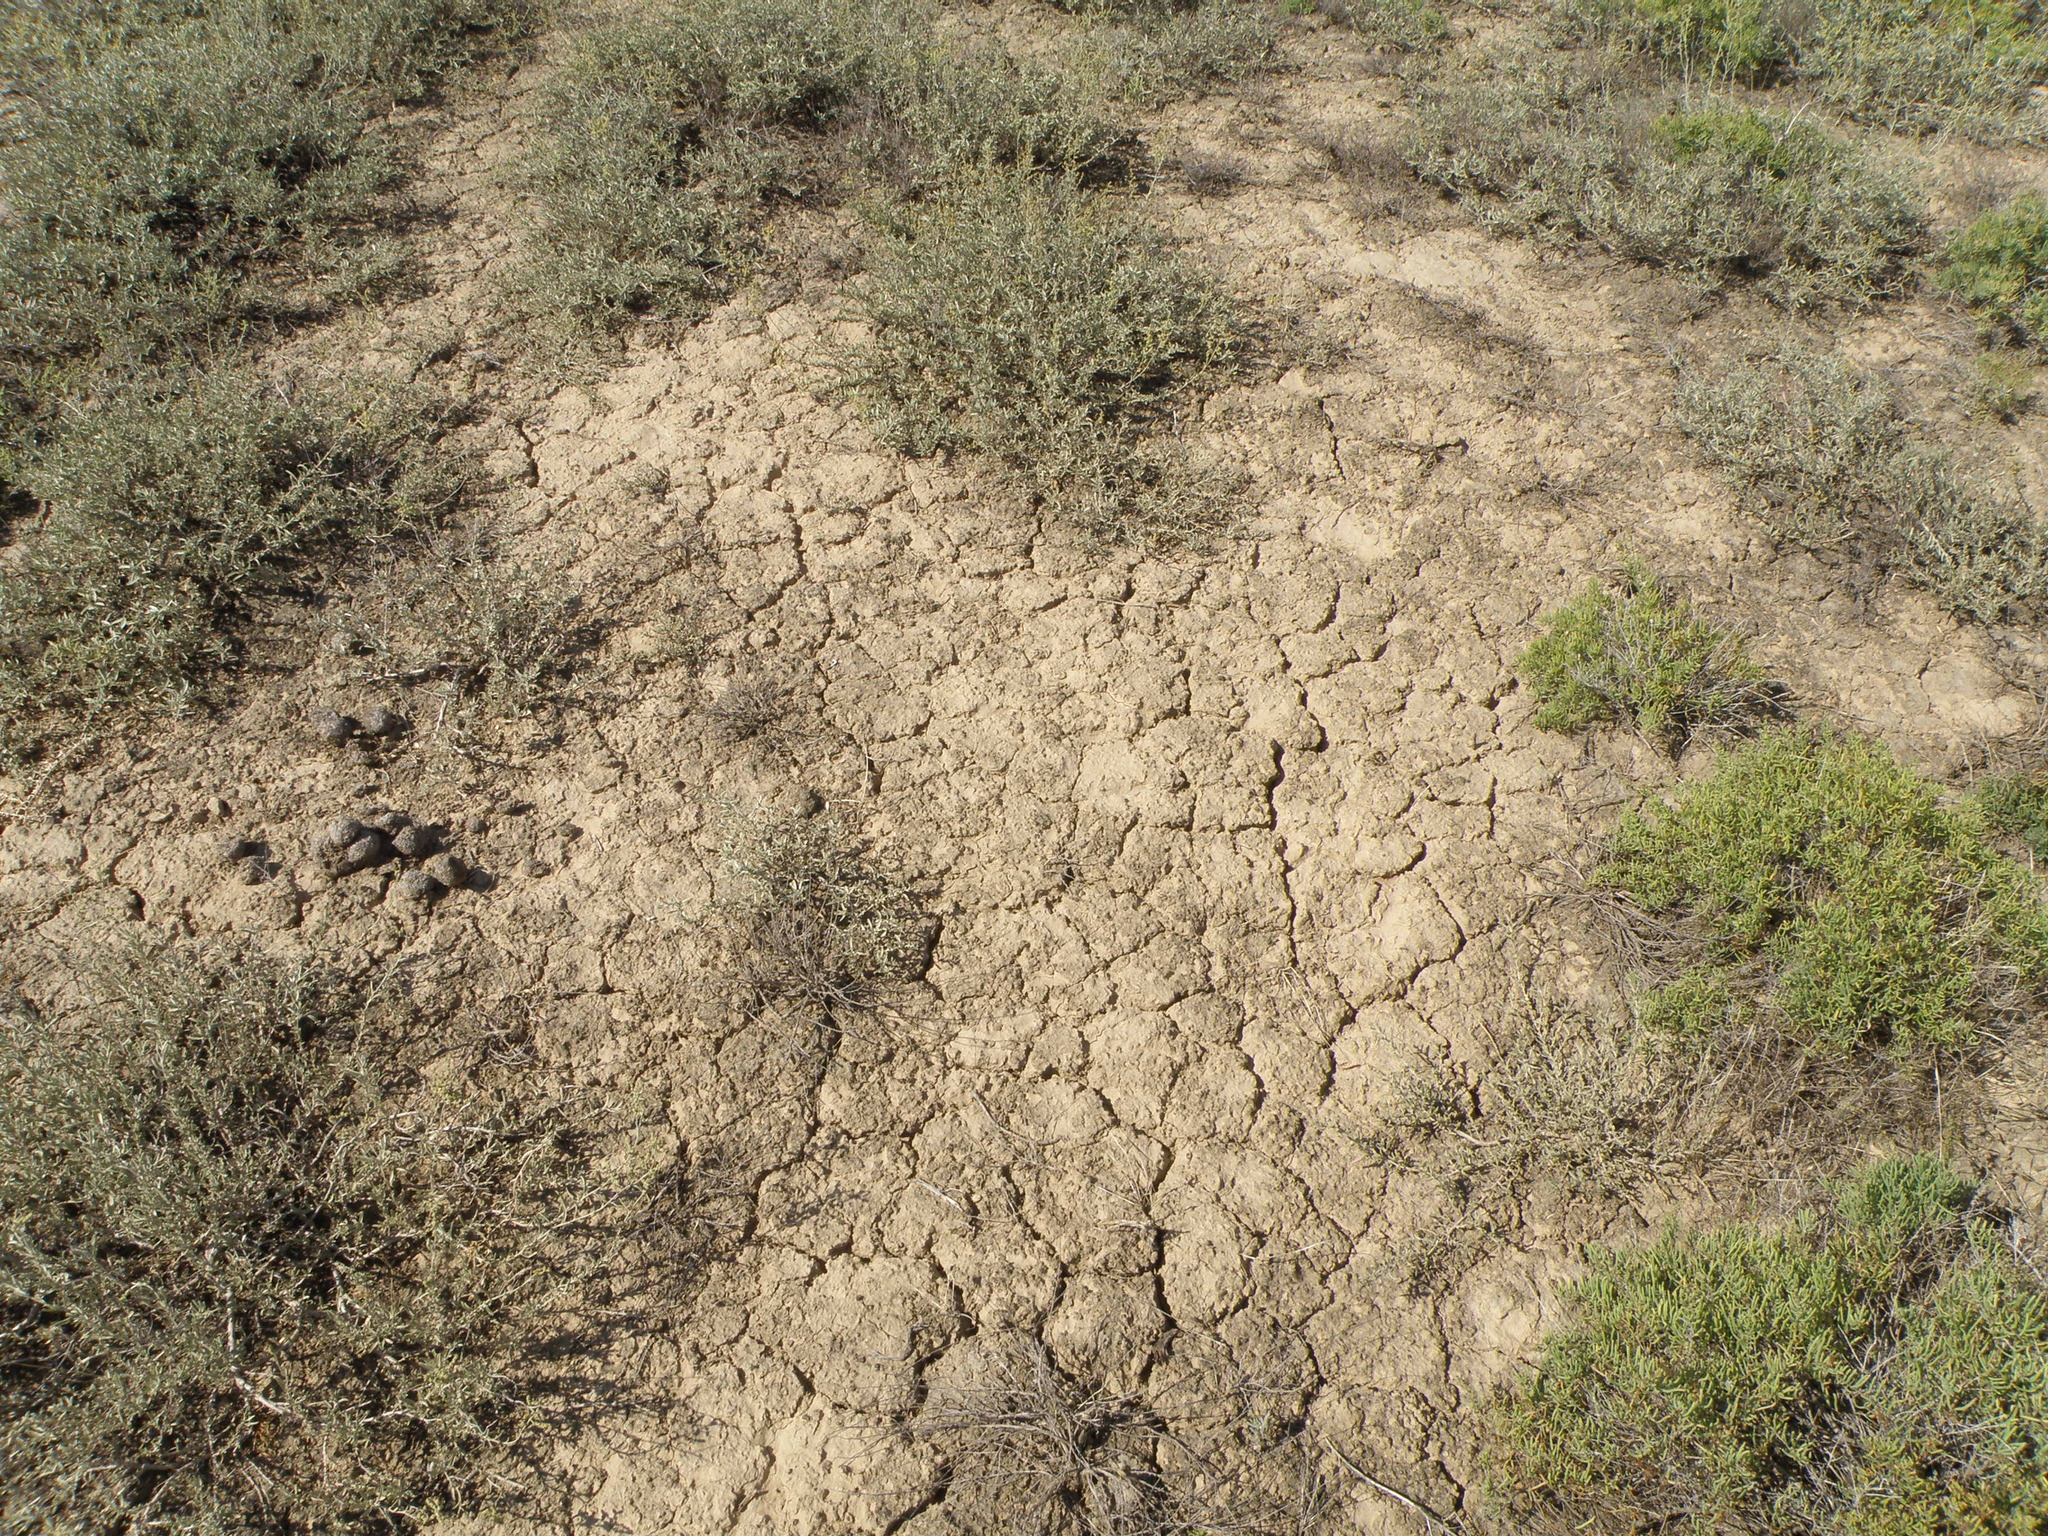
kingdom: Plantae
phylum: Tracheophyta
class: Magnoliopsida
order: Caryophyllales
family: Amaranthaceae
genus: Atriplex
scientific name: Atriplex cana
